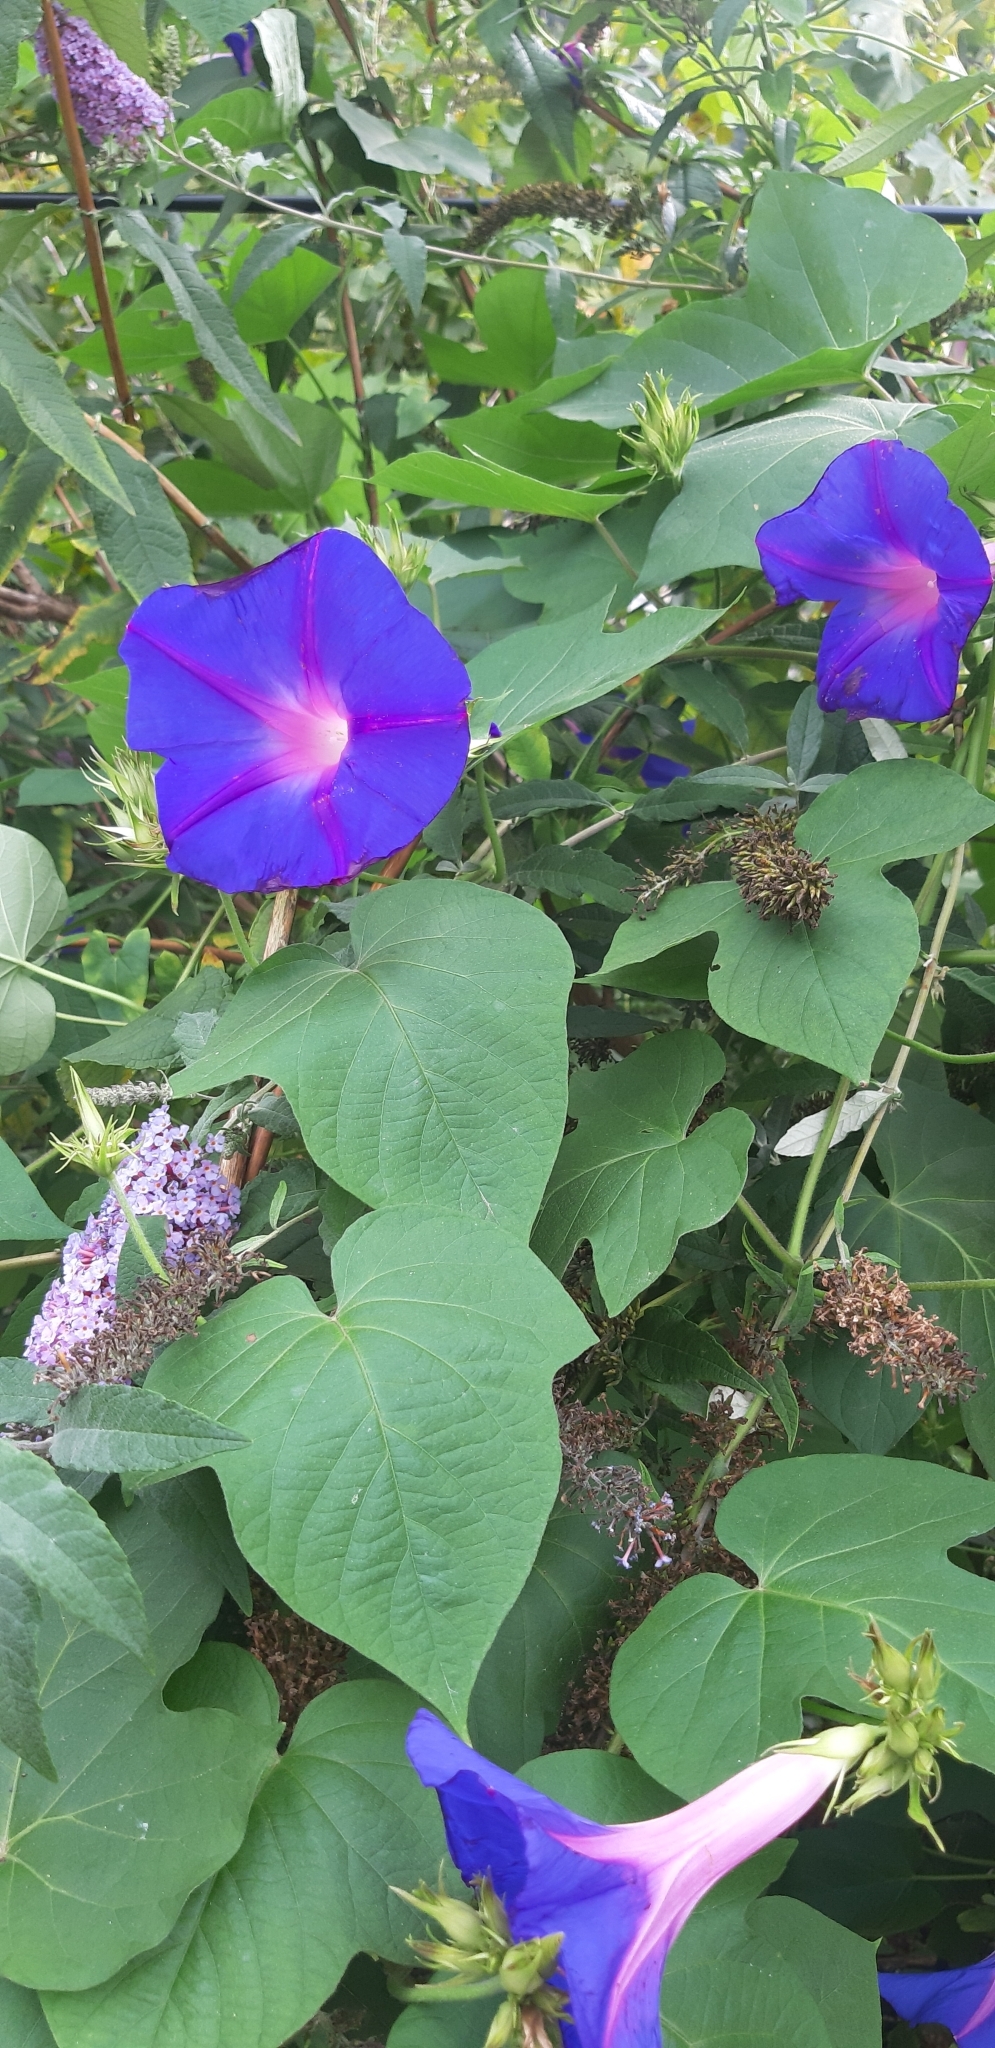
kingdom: Plantae
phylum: Tracheophyta
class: Magnoliopsida
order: Solanales
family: Convolvulaceae
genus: Ipomoea
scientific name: Ipomoea indica
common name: Blue dawnflower
